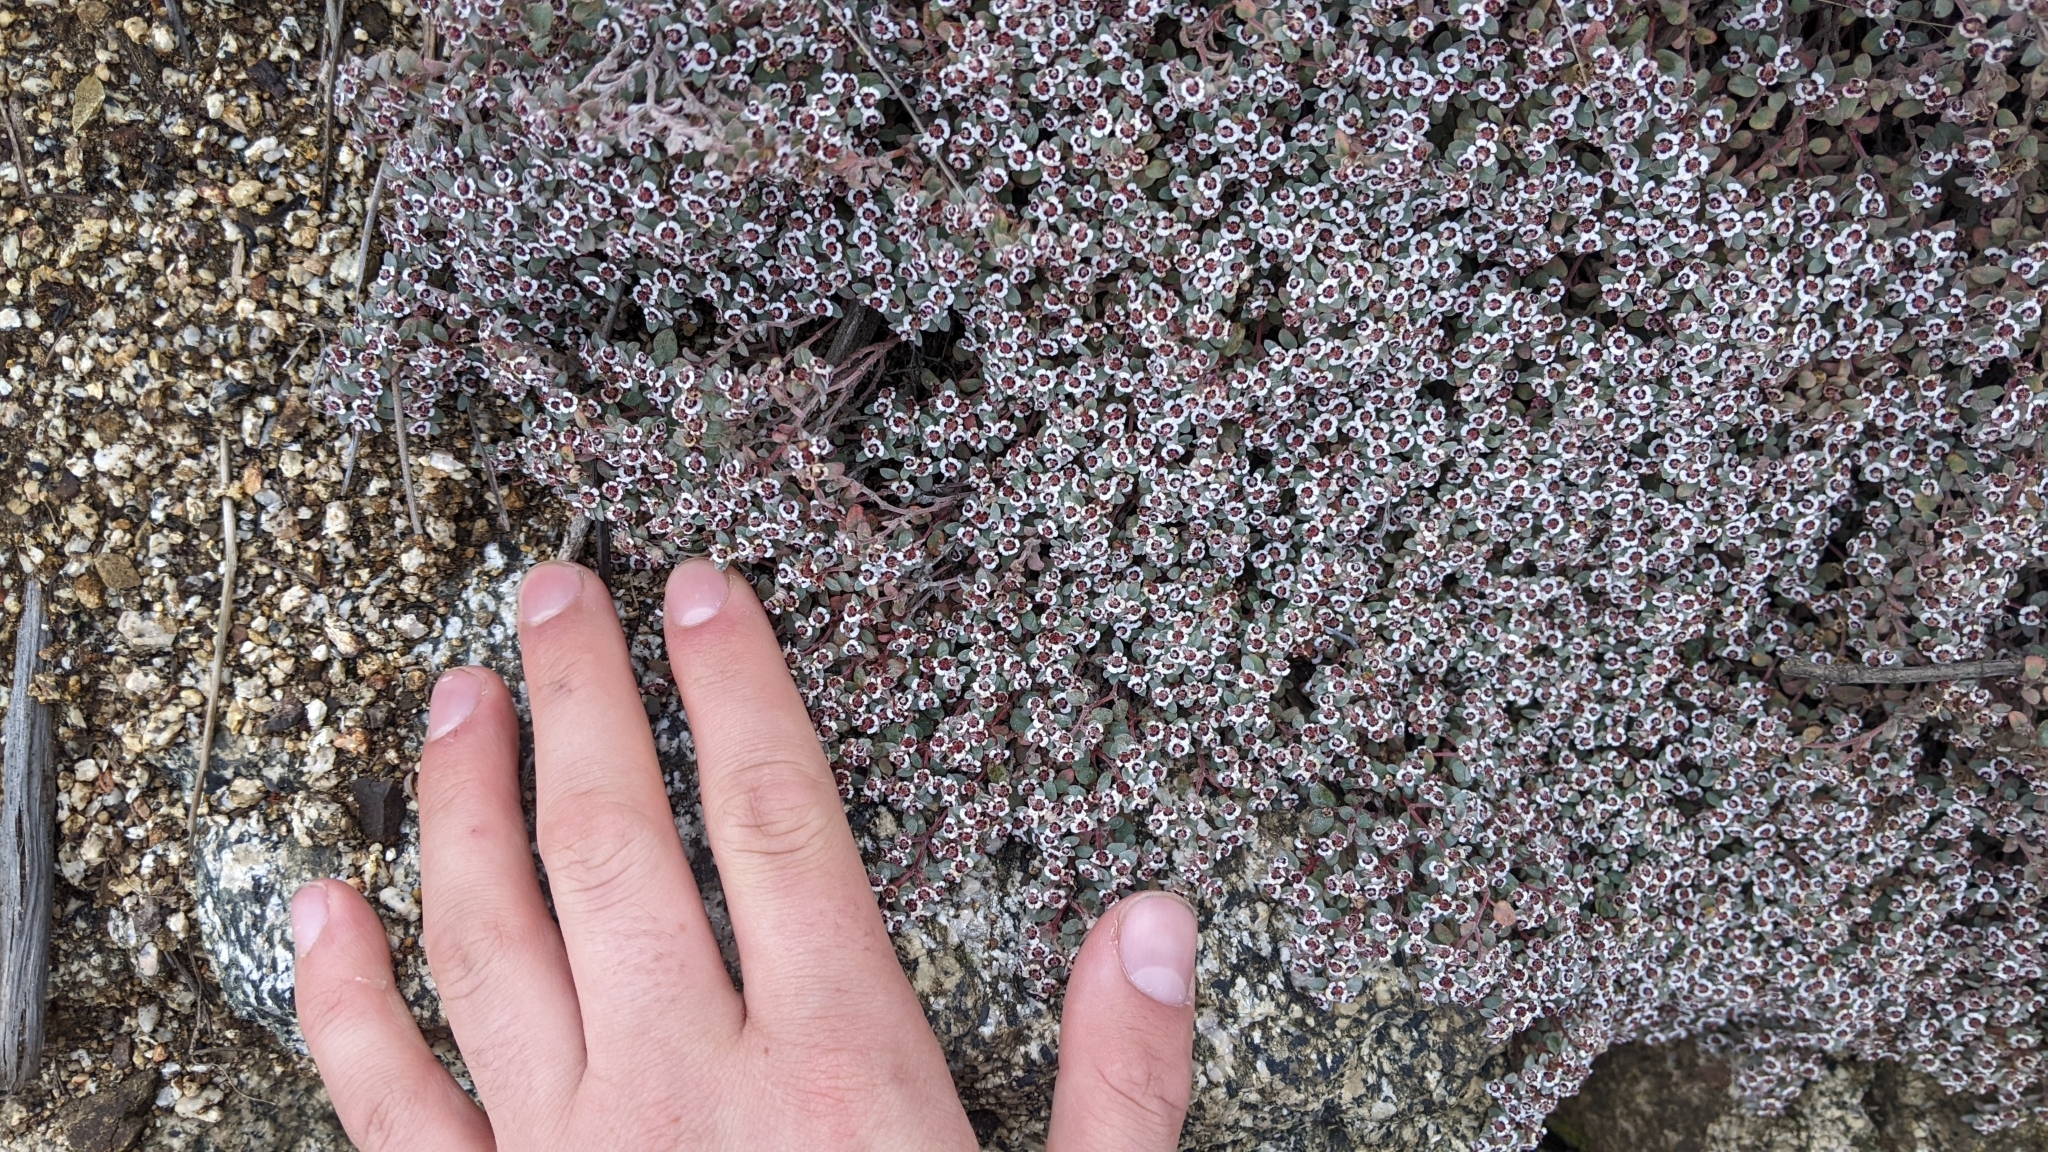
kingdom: Plantae
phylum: Tracheophyta
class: Magnoliopsida
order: Malpighiales
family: Euphorbiaceae
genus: Euphorbia
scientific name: Euphorbia melanadenia
